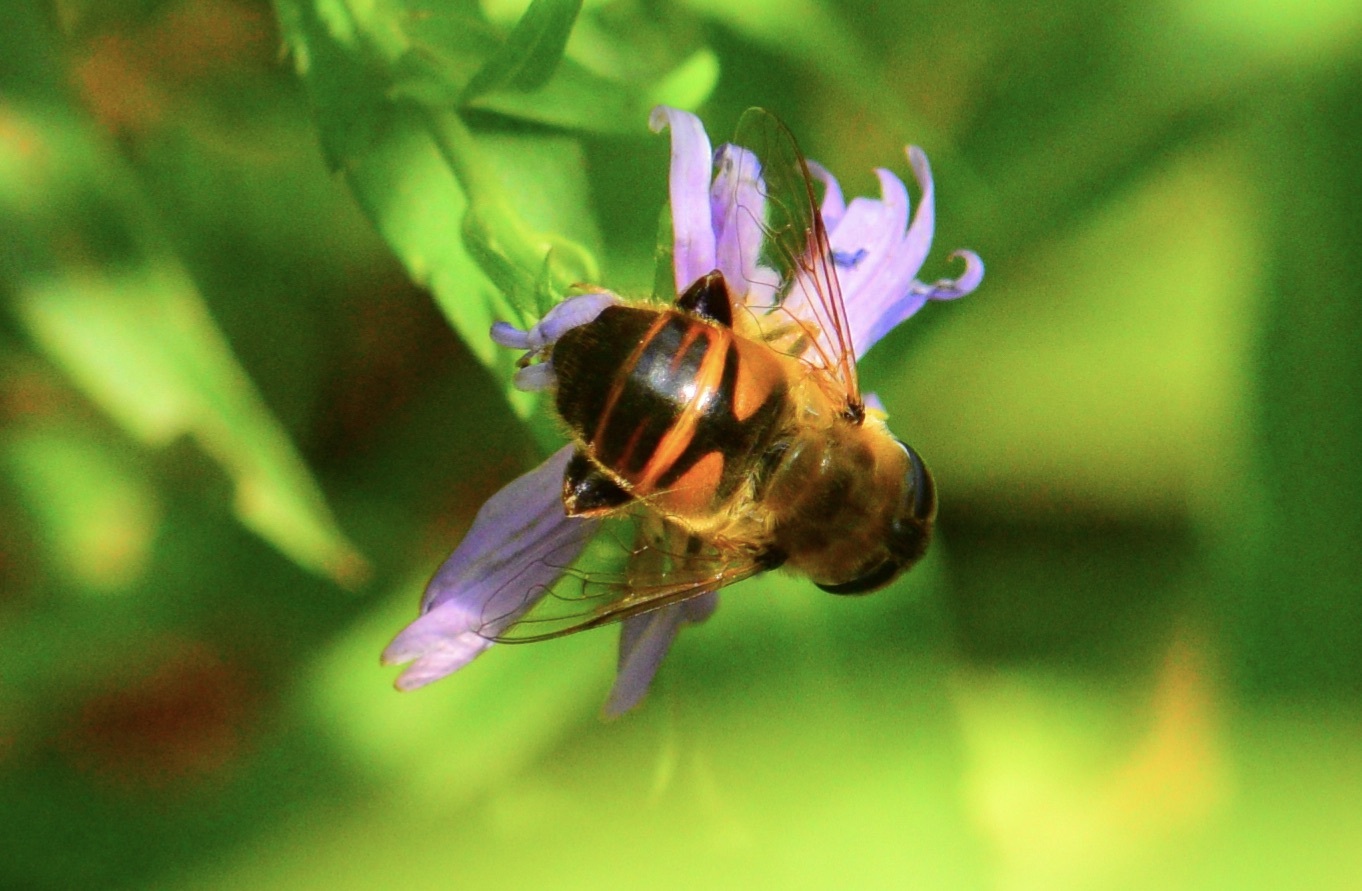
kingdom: Animalia
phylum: Arthropoda
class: Insecta
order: Diptera
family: Syrphidae
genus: Eristalis
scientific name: Eristalis tenax
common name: Drone fly
